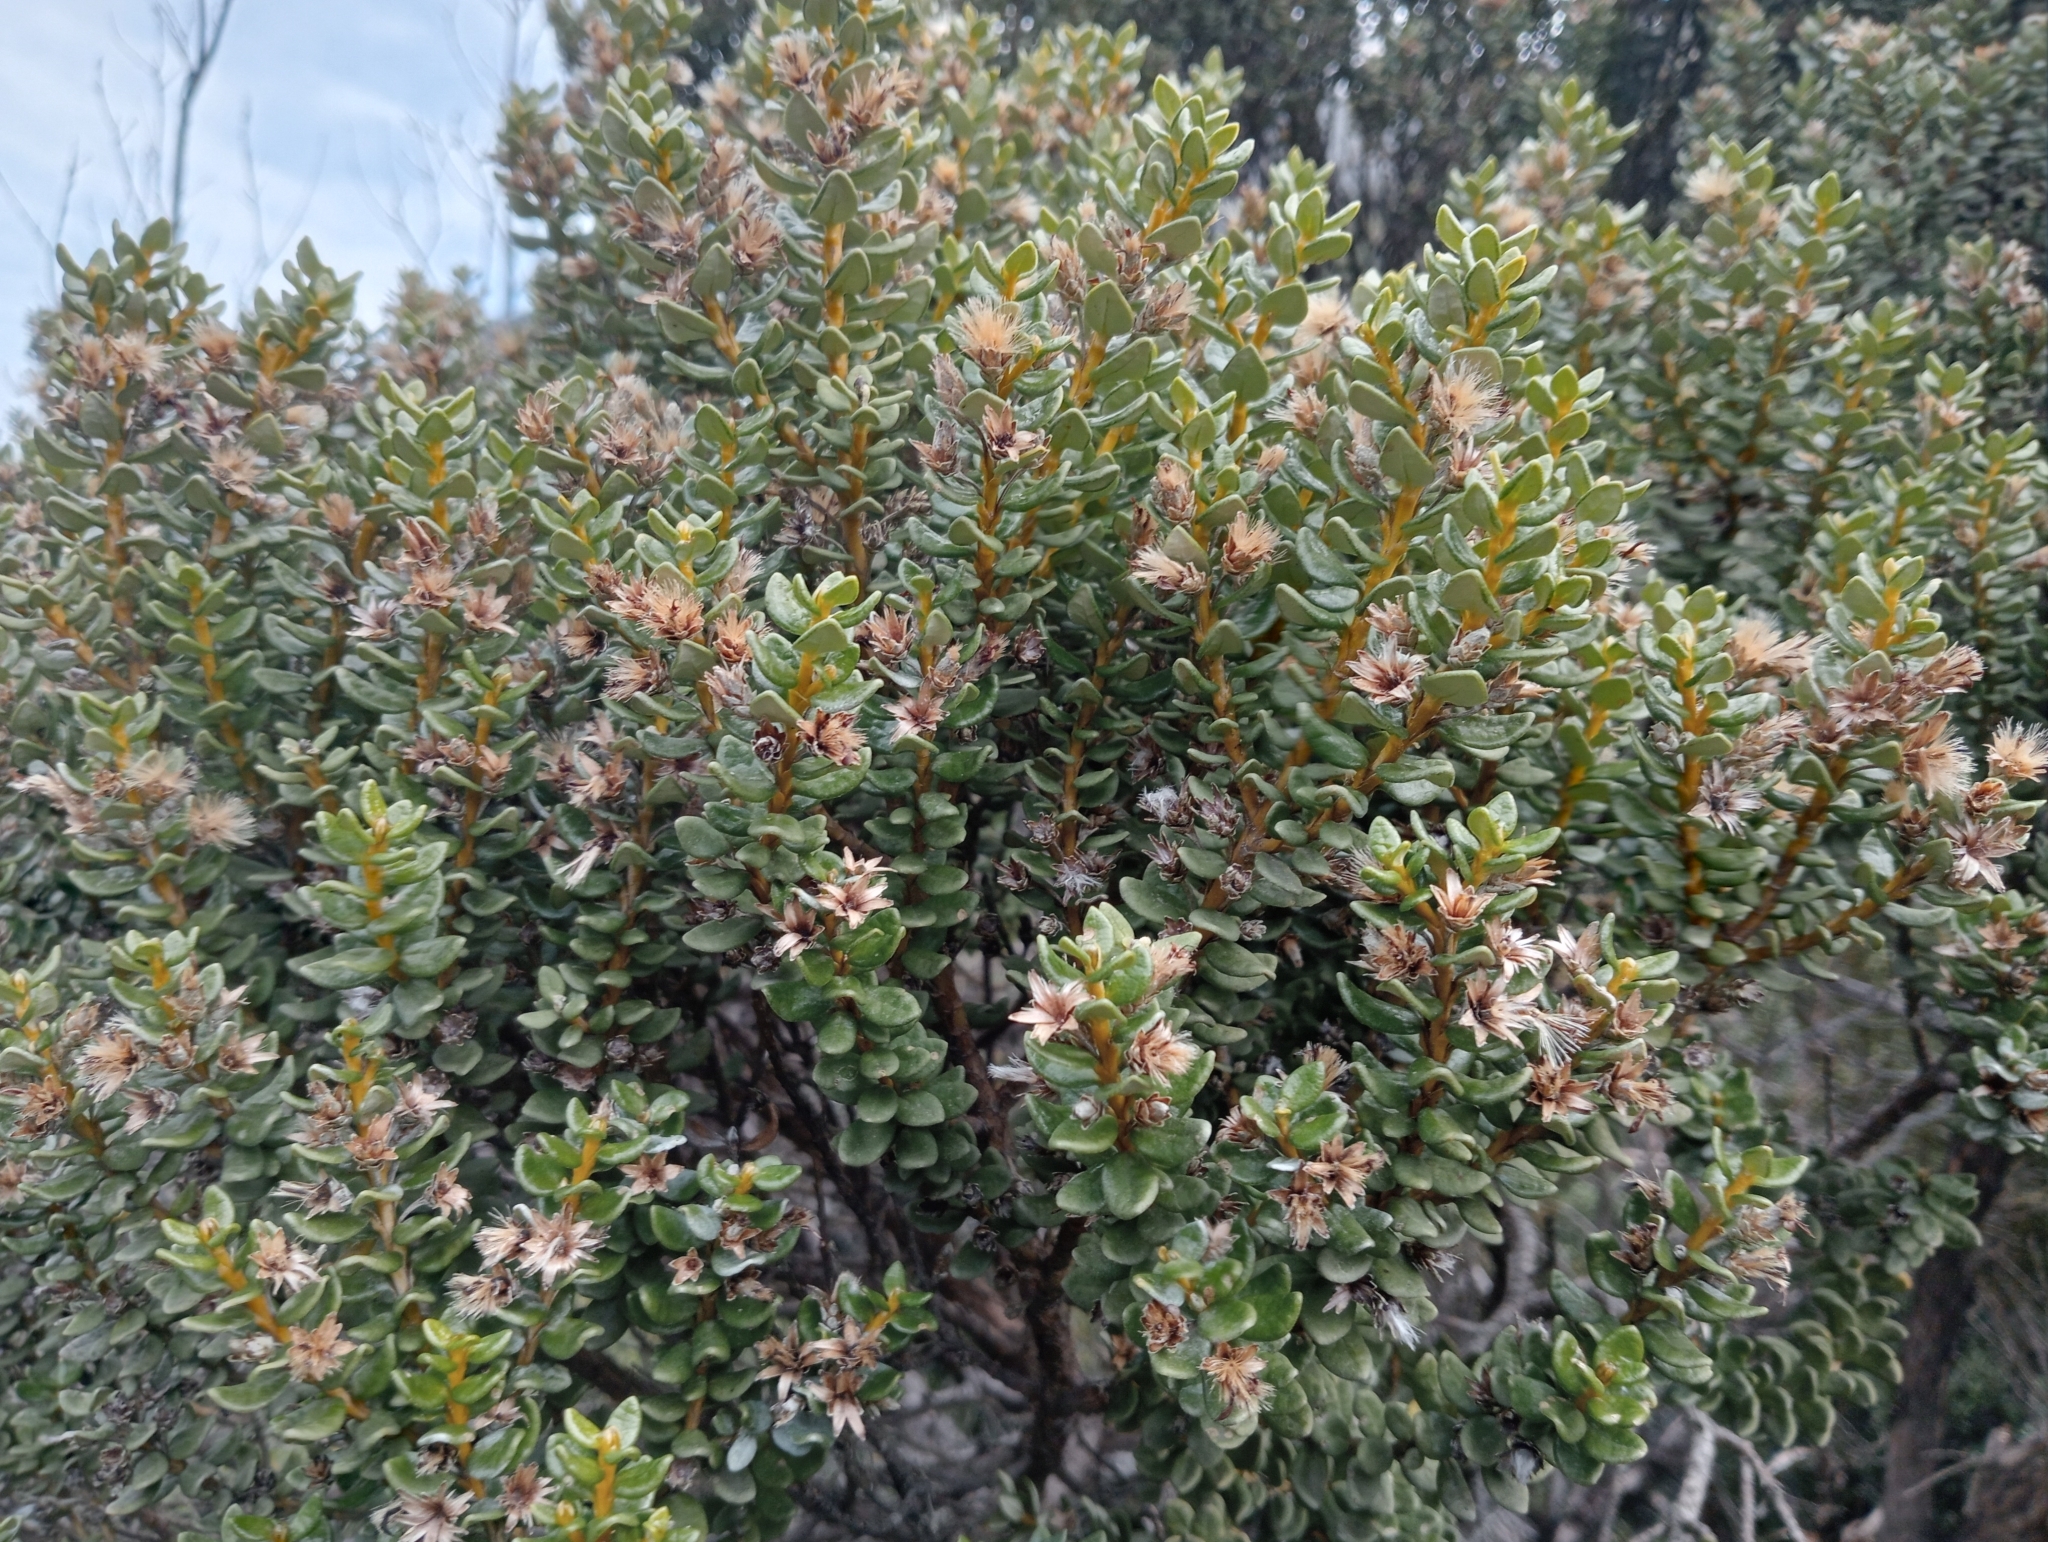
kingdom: Plantae
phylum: Tracheophyta
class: Magnoliopsida
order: Asterales
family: Asteraceae
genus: Olearia
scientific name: Olearia nummularifolia
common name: Sticky daisybush
